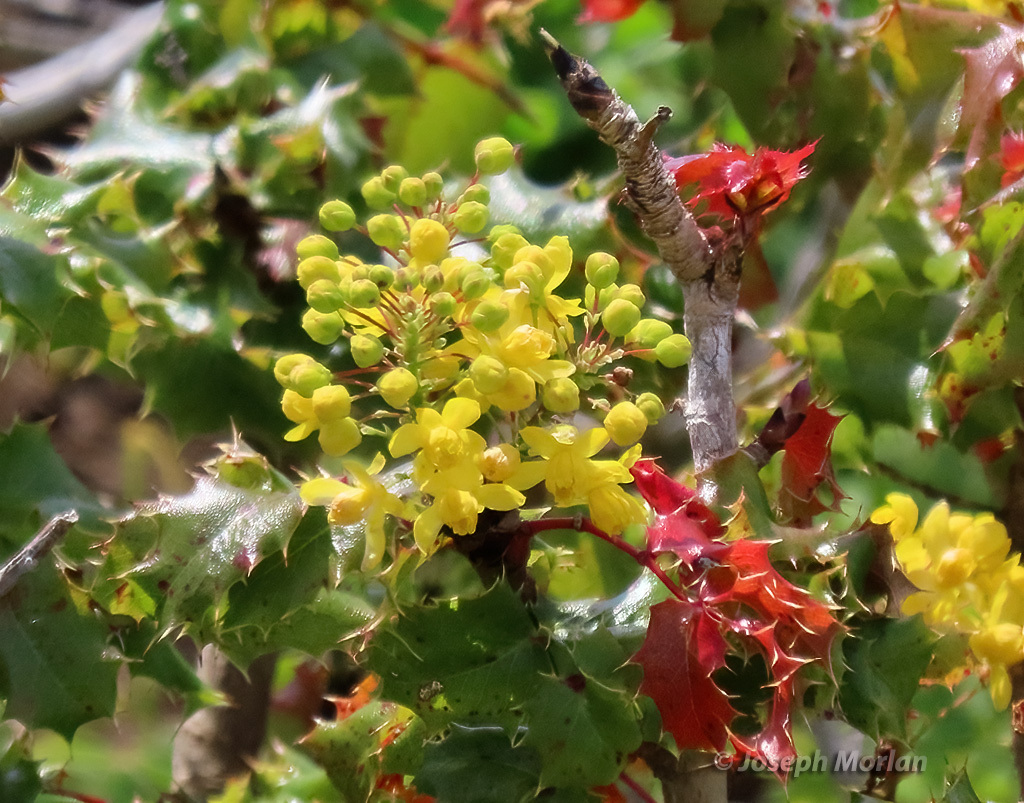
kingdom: Plantae
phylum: Tracheophyta
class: Magnoliopsida
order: Ranunculales
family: Berberidaceae
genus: Mahonia
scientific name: Mahonia
